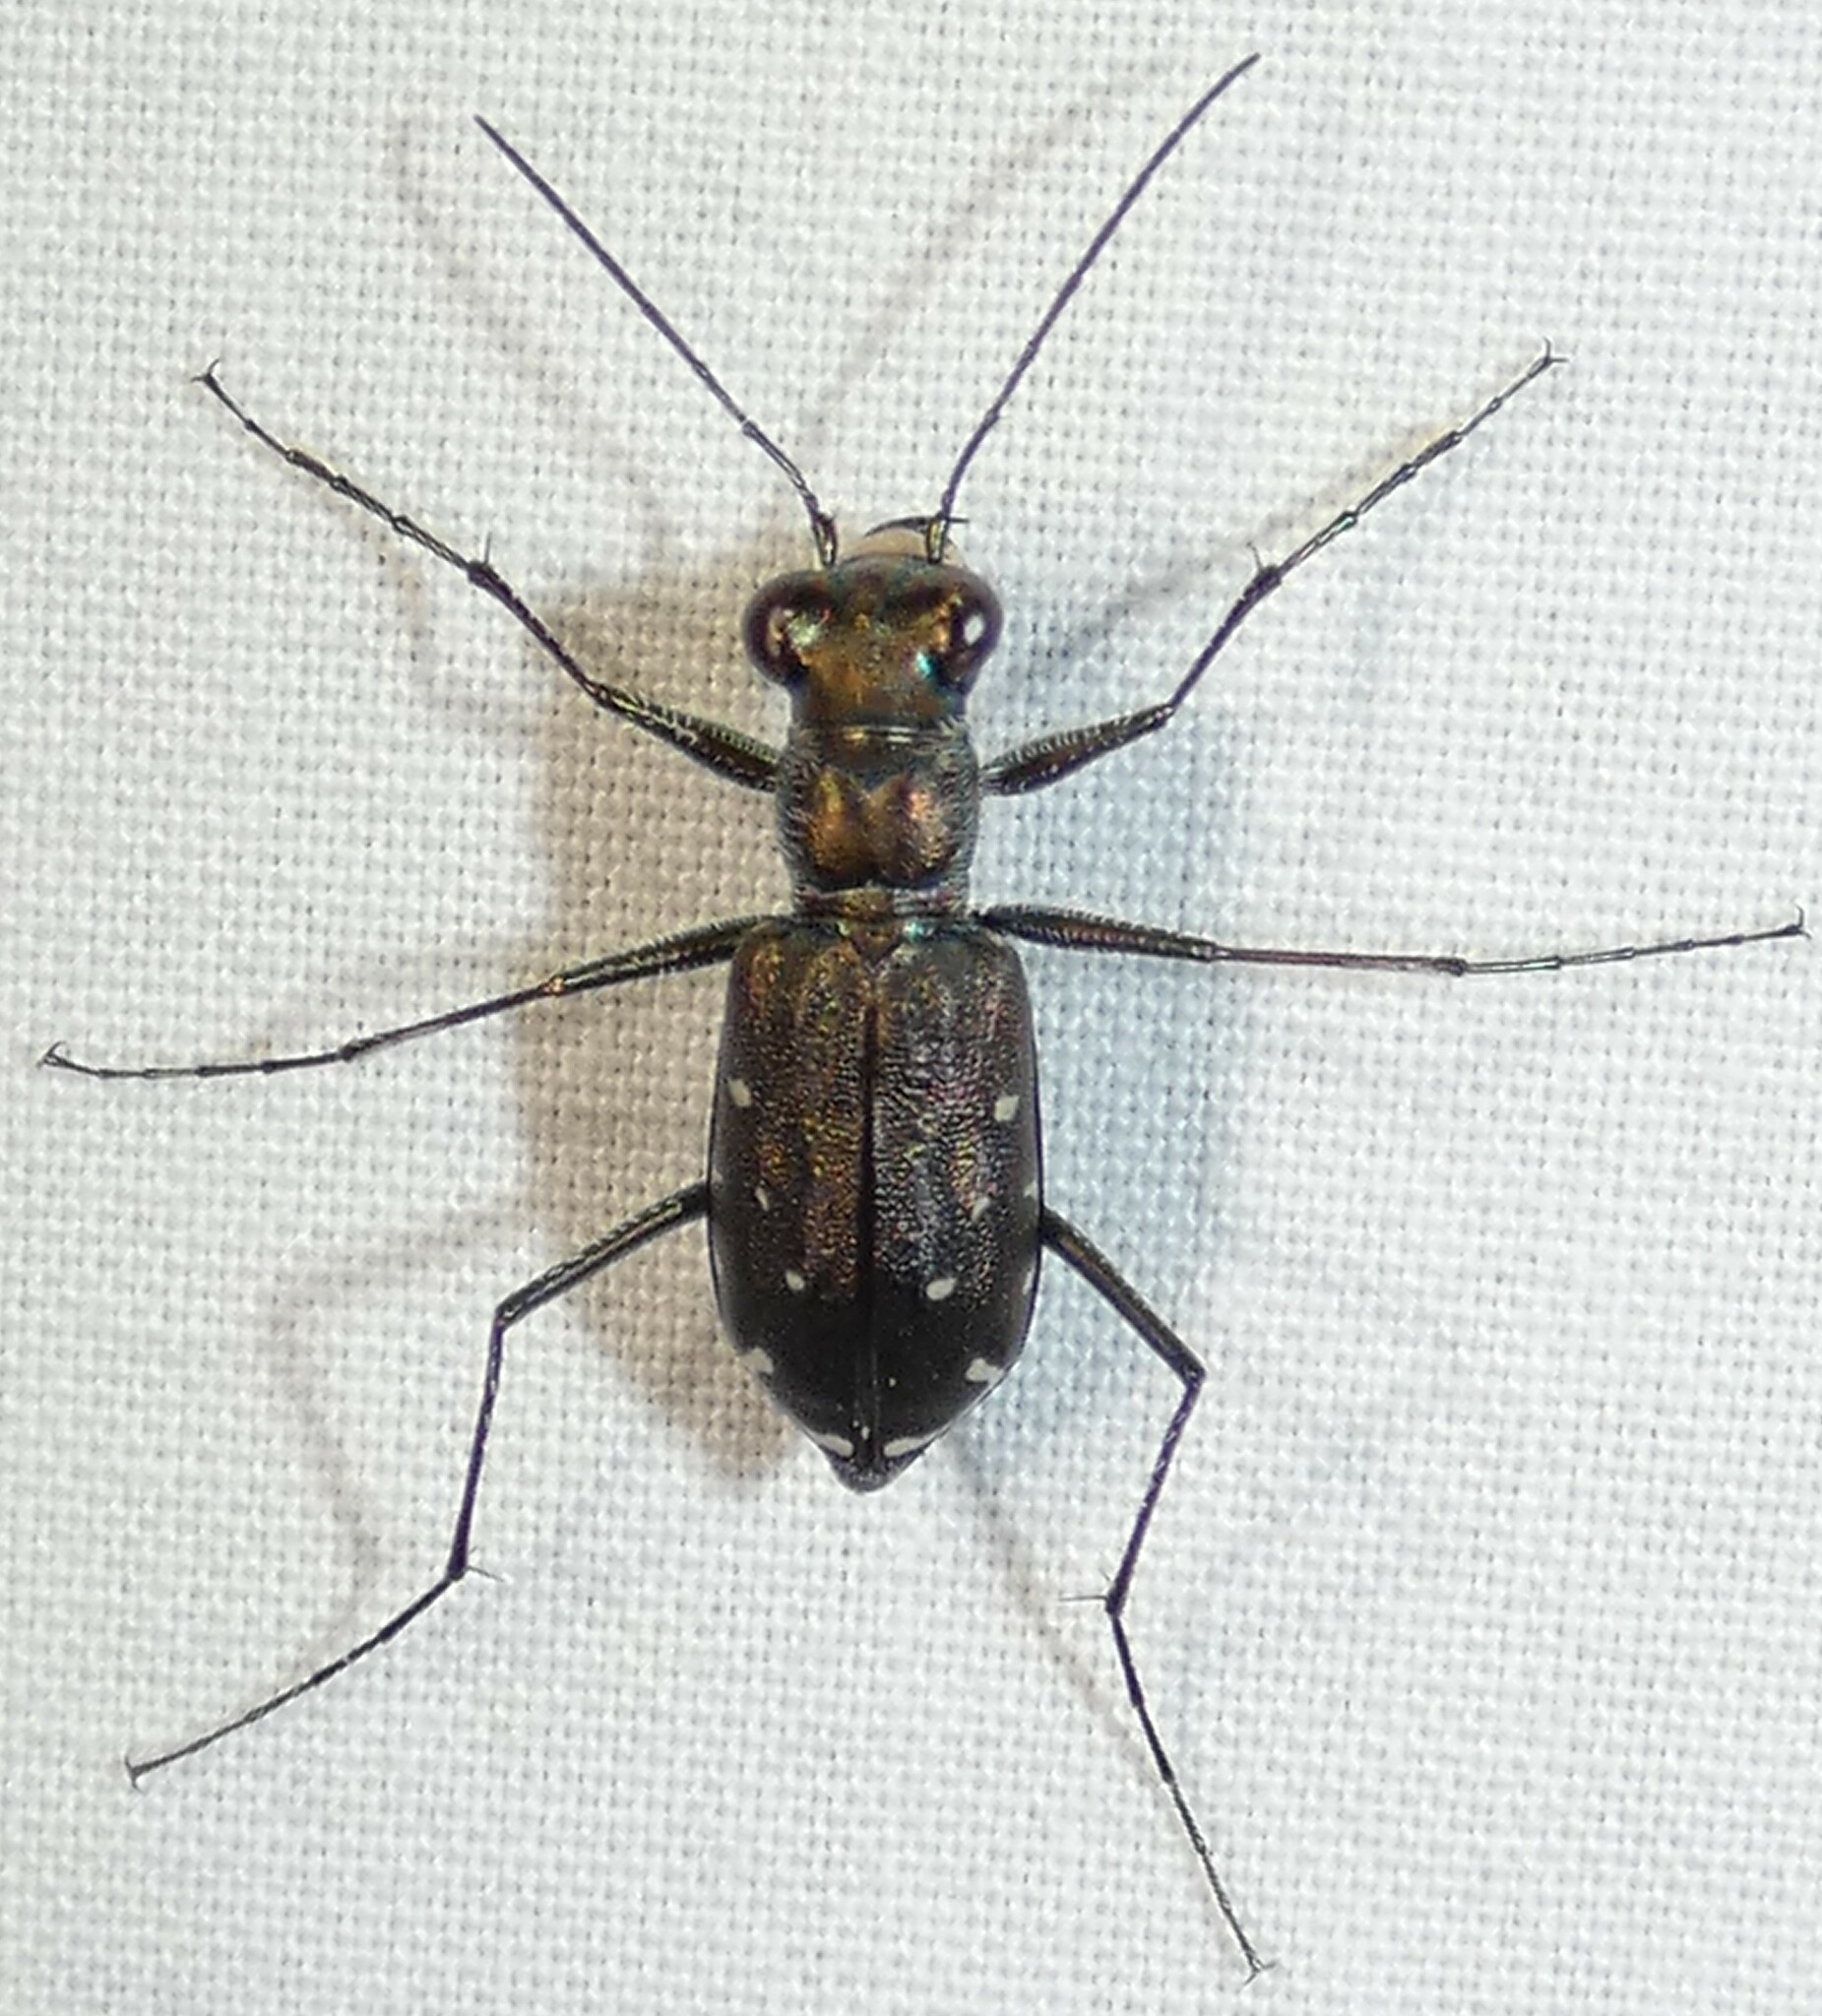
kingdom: Animalia
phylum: Arthropoda
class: Insecta
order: Coleoptera
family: Carabidae
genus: Cicindela
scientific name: Cicindela punctulata
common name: Punctured tiger beetle
